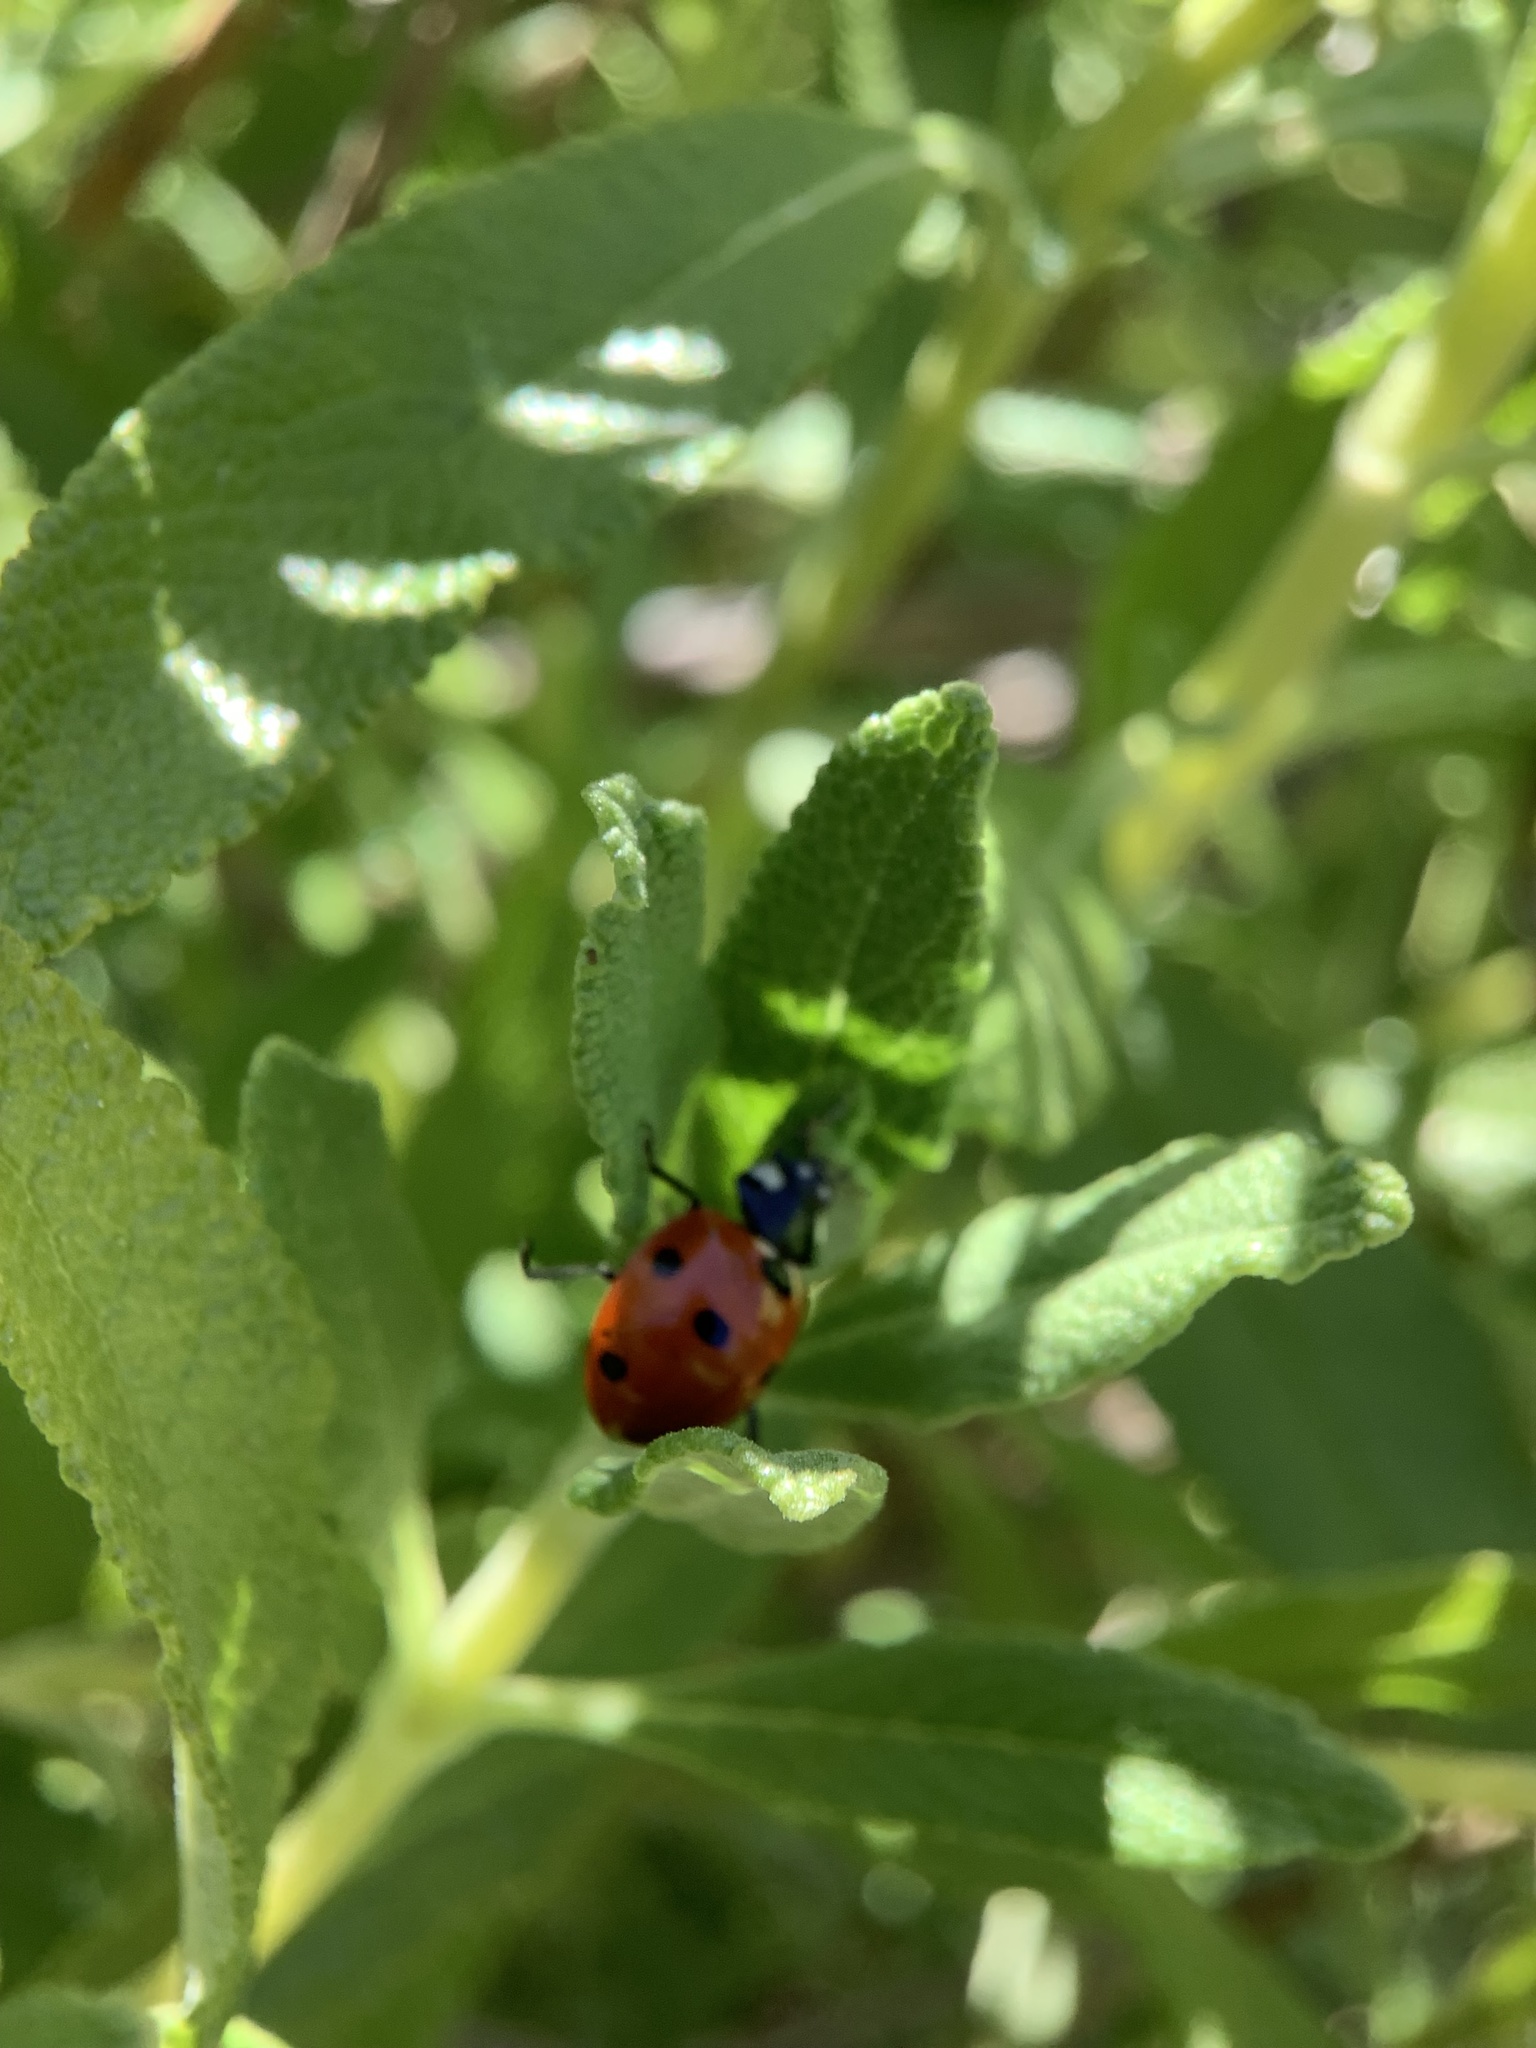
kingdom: Animalia
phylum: Arthropoda
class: Insecta
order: Coleoptera
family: Coccinellidae
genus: Coccinella
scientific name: Coccinella septempunctata
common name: Sevenspotted lady beetle
